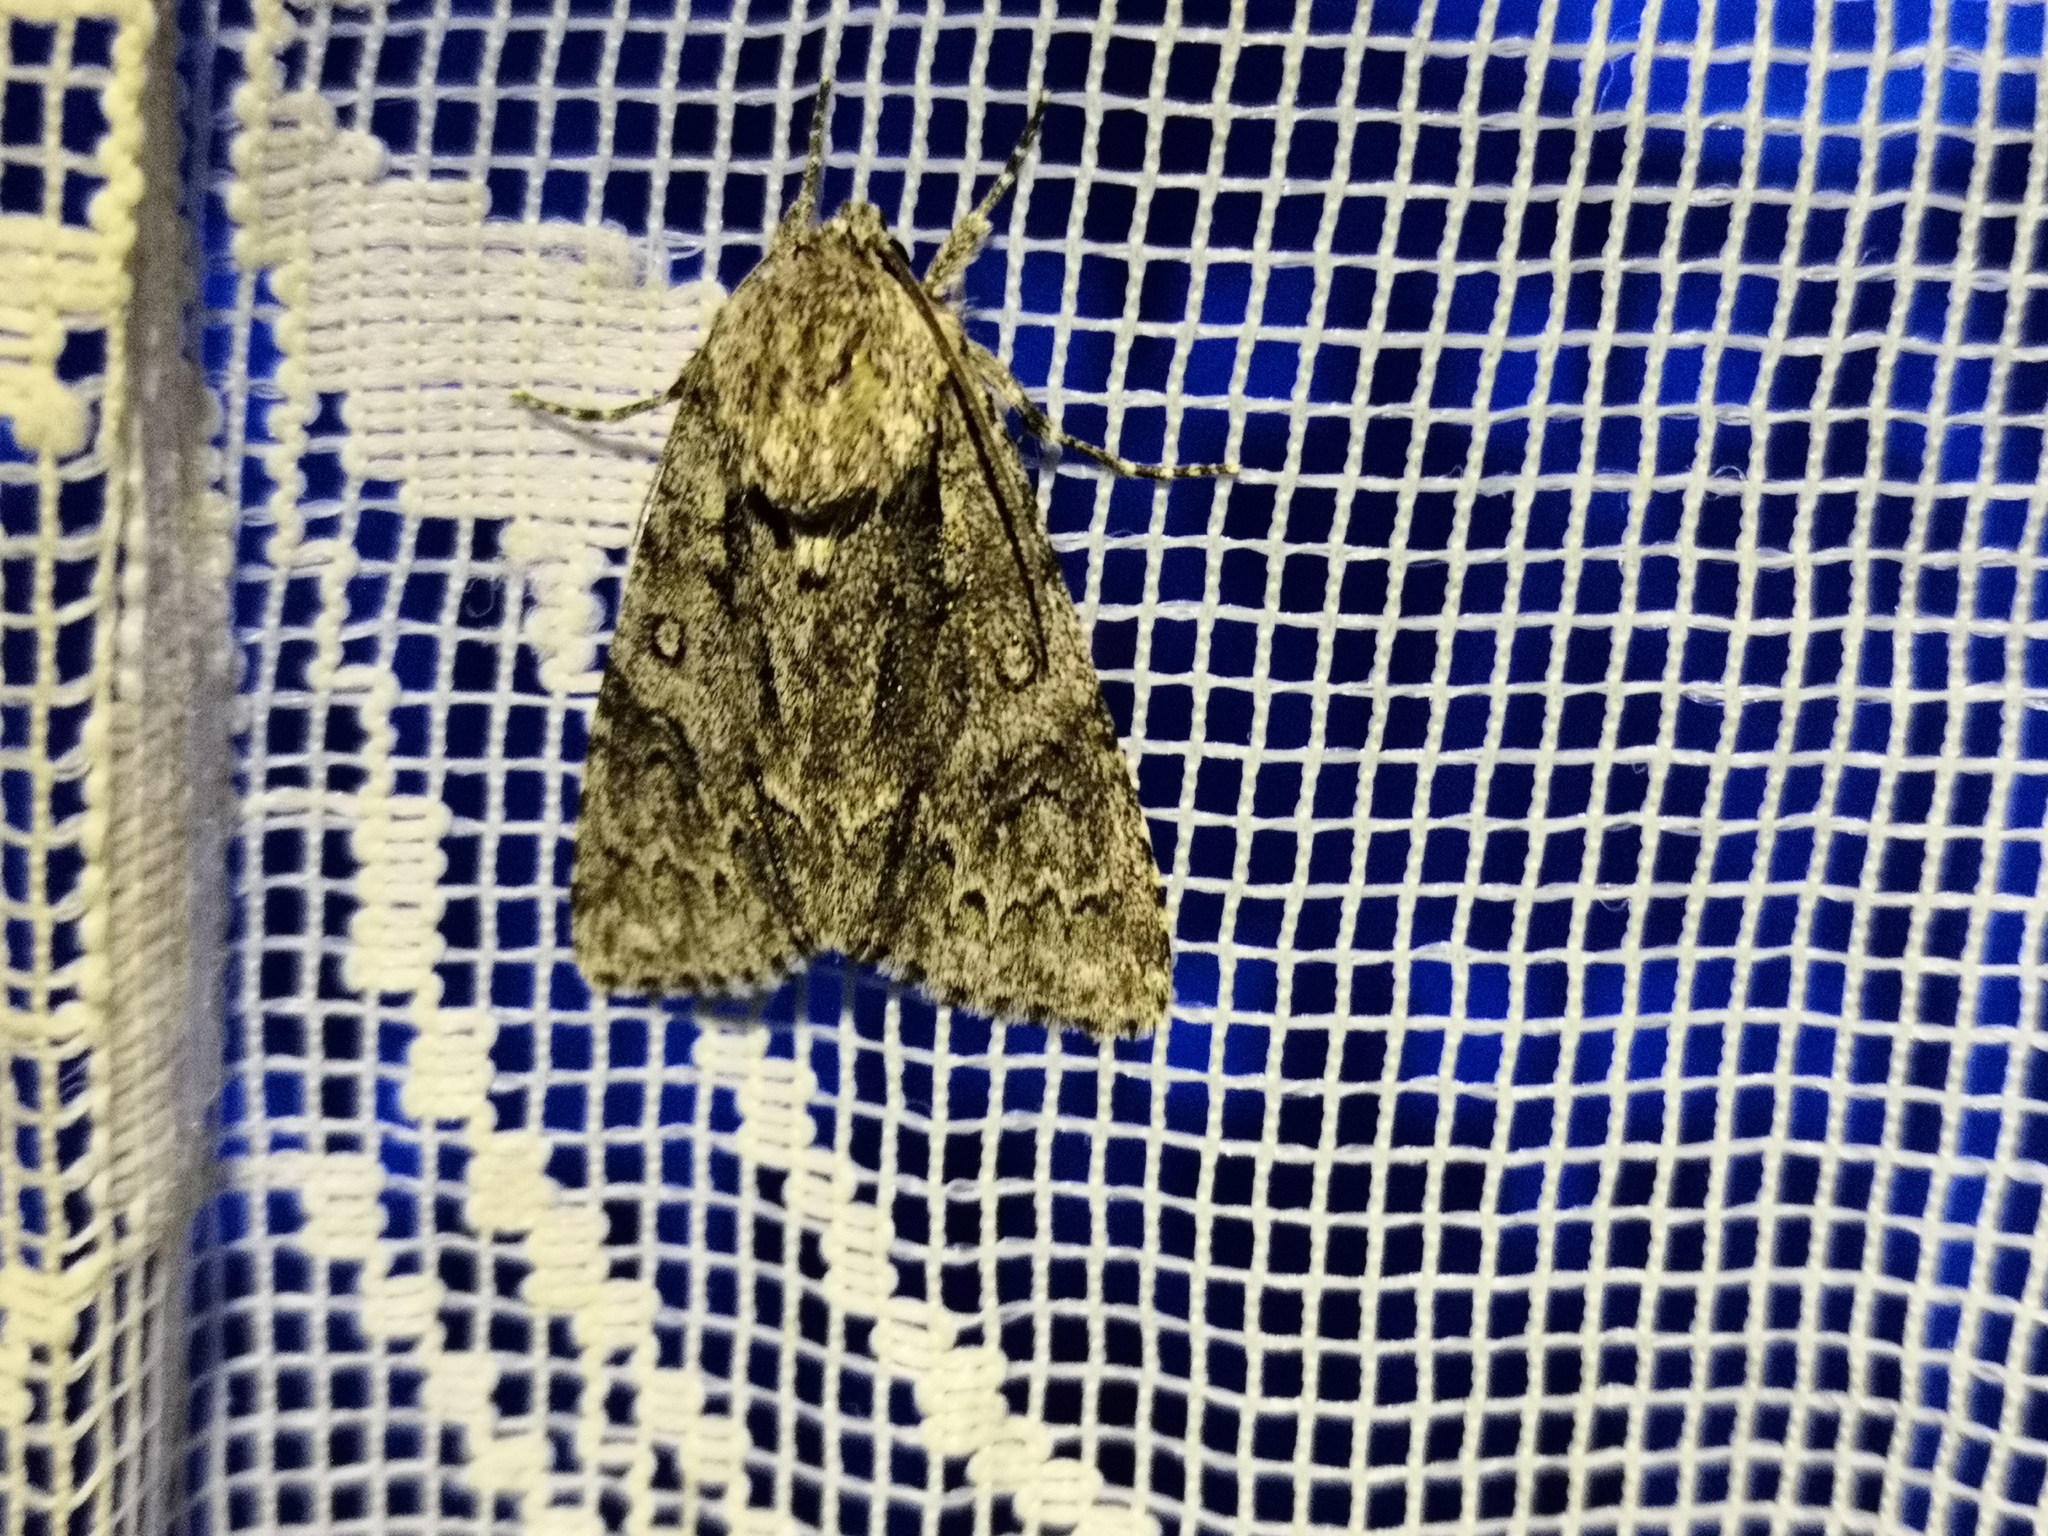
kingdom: Animalia
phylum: Arthropoda
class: Insecta
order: Lepidoptera
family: Noctuidae
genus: Acronicta
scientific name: Acronicta auricoma
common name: Scarce dagger
